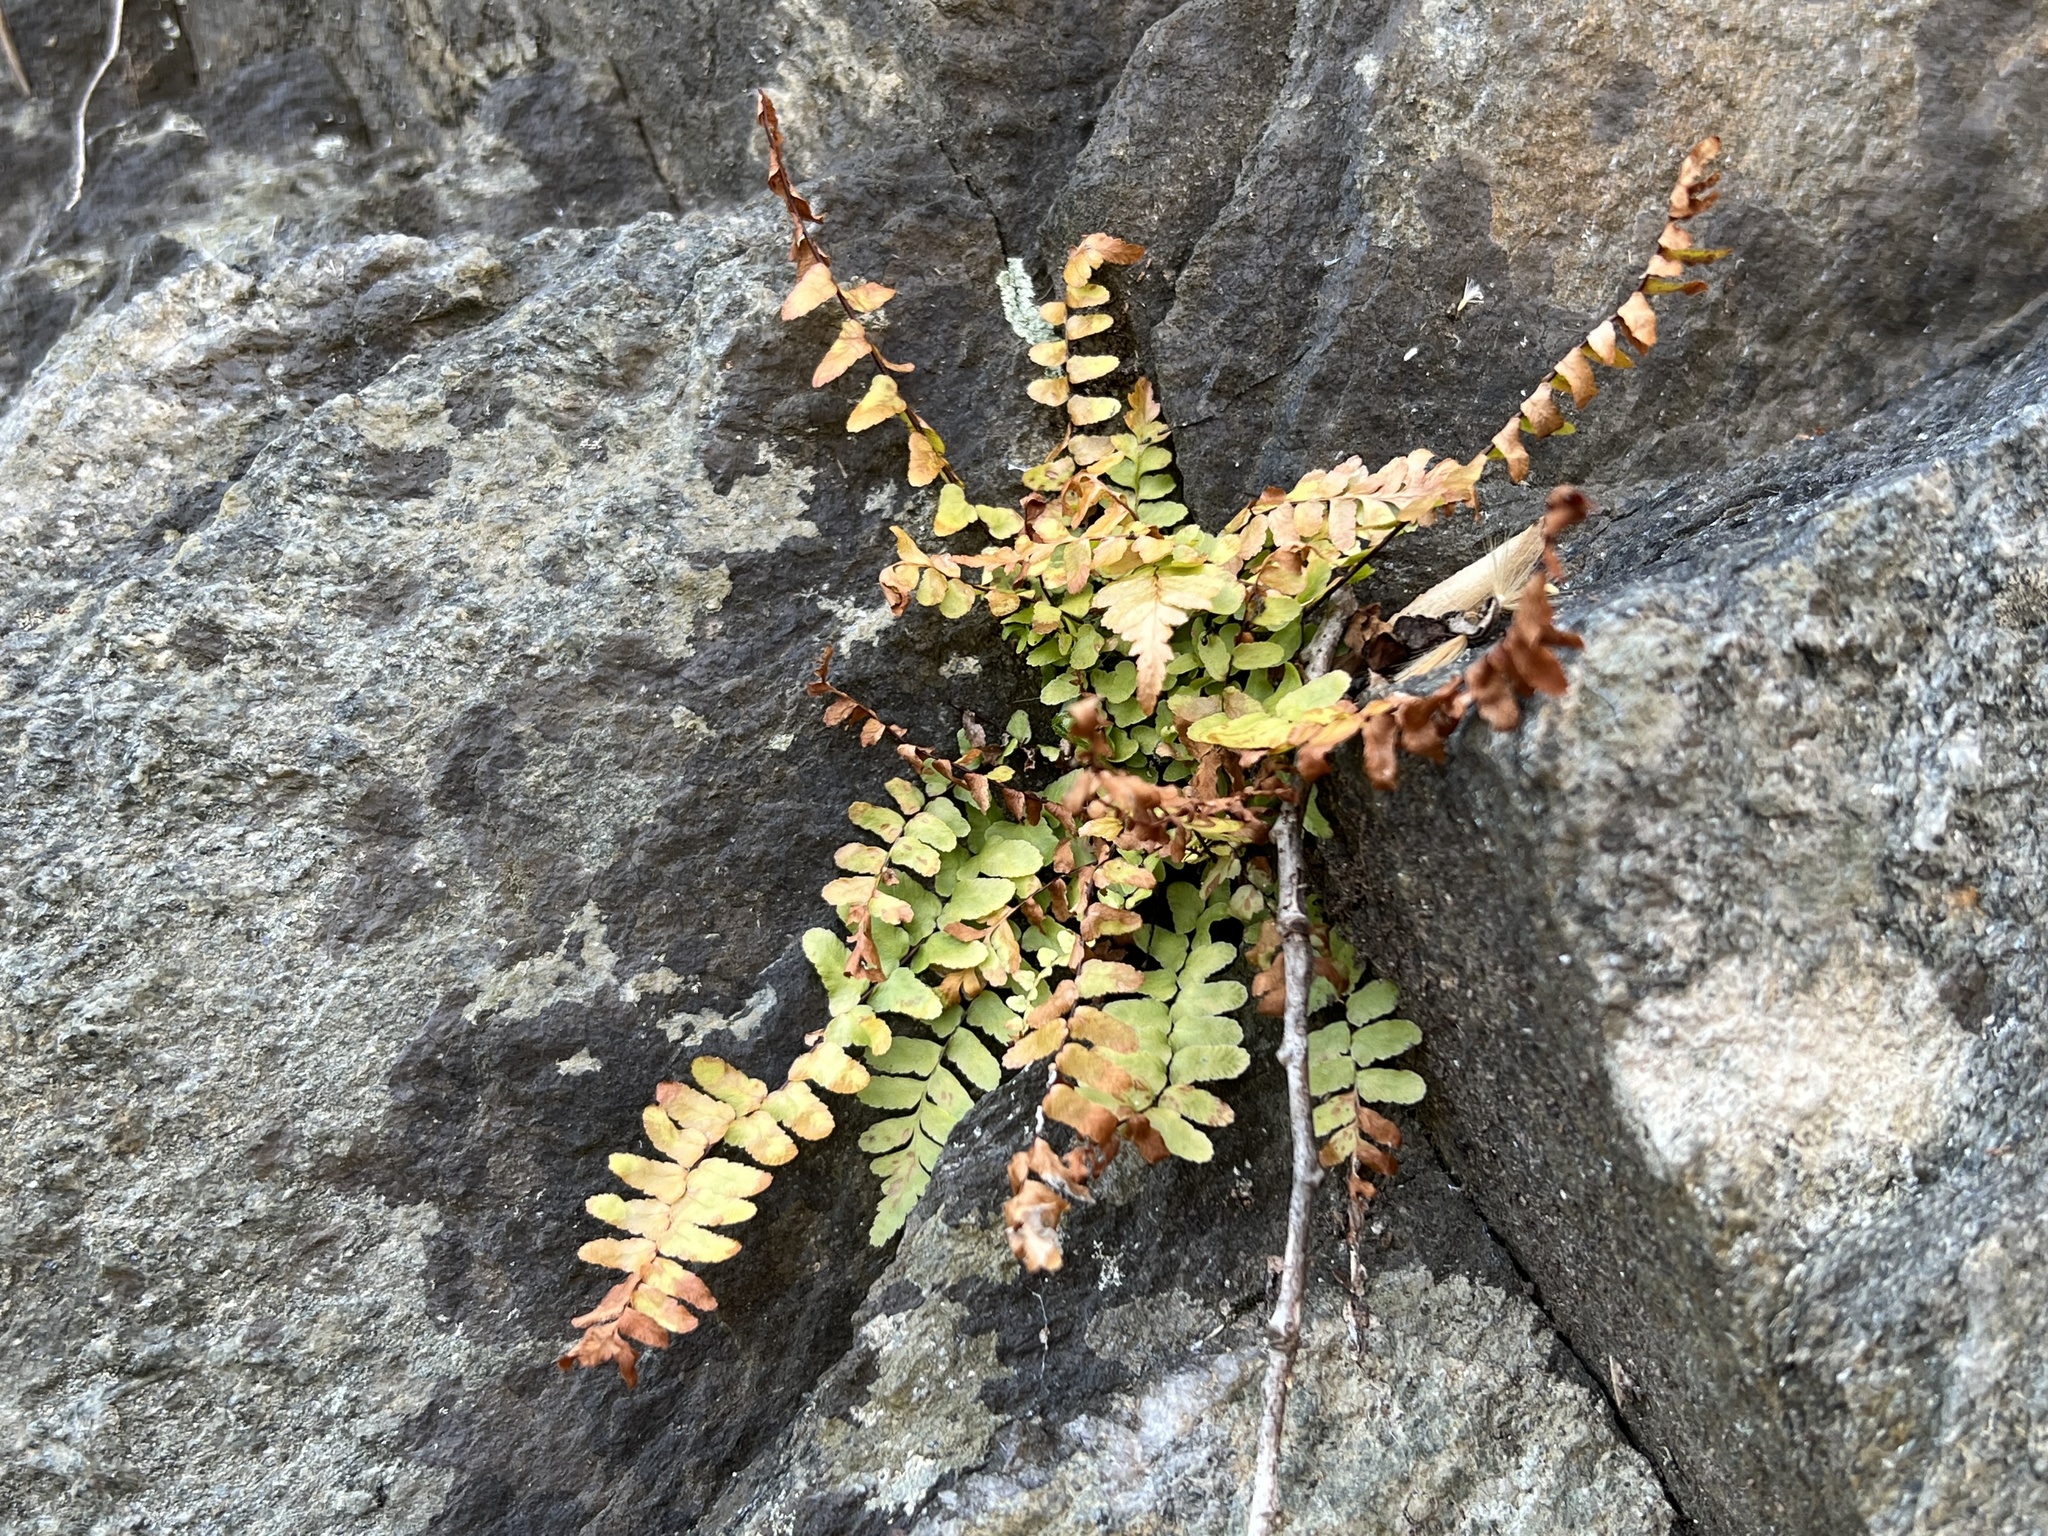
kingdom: Plantae
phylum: Tracheophyta
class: Polypodiopsida
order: Polypodiales
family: Aspleniaceae
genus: Asplenium
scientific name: Asplenium platyneuron
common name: Ebony spleenwort
